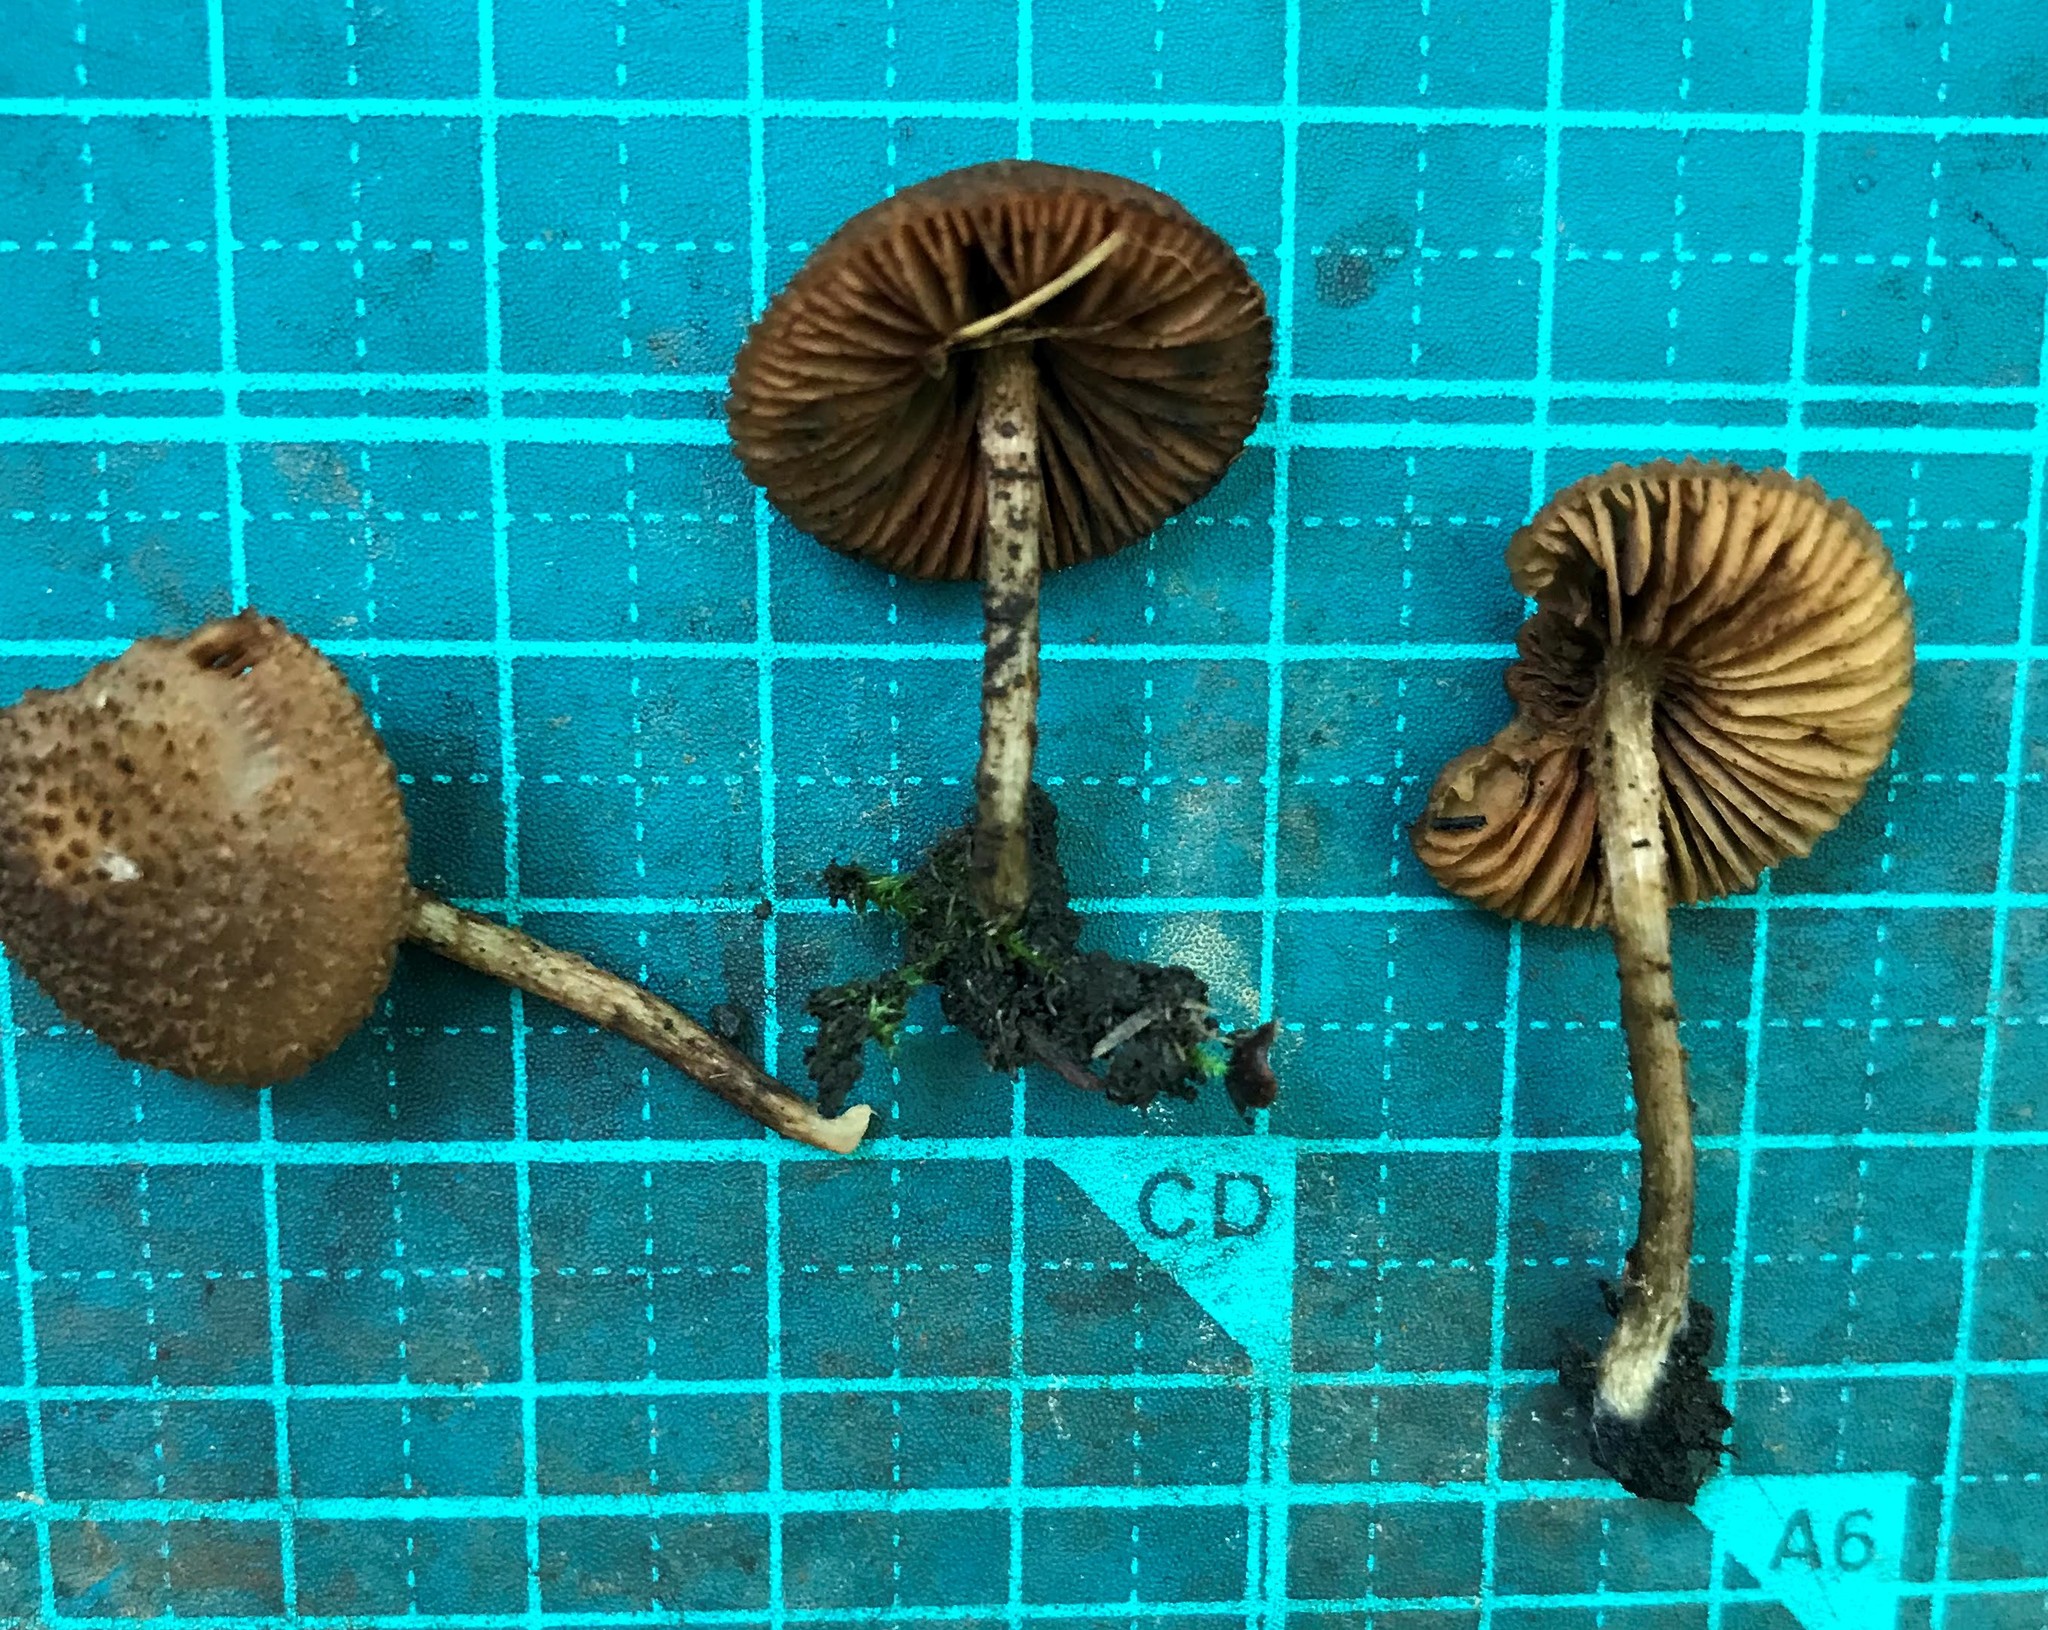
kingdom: Fungi
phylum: Basidiomycota
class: Agaricomycetes
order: Agaricales
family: Psathyrellaceae
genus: Cystoagaricus
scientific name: Cystoagaricus strobilomyces
